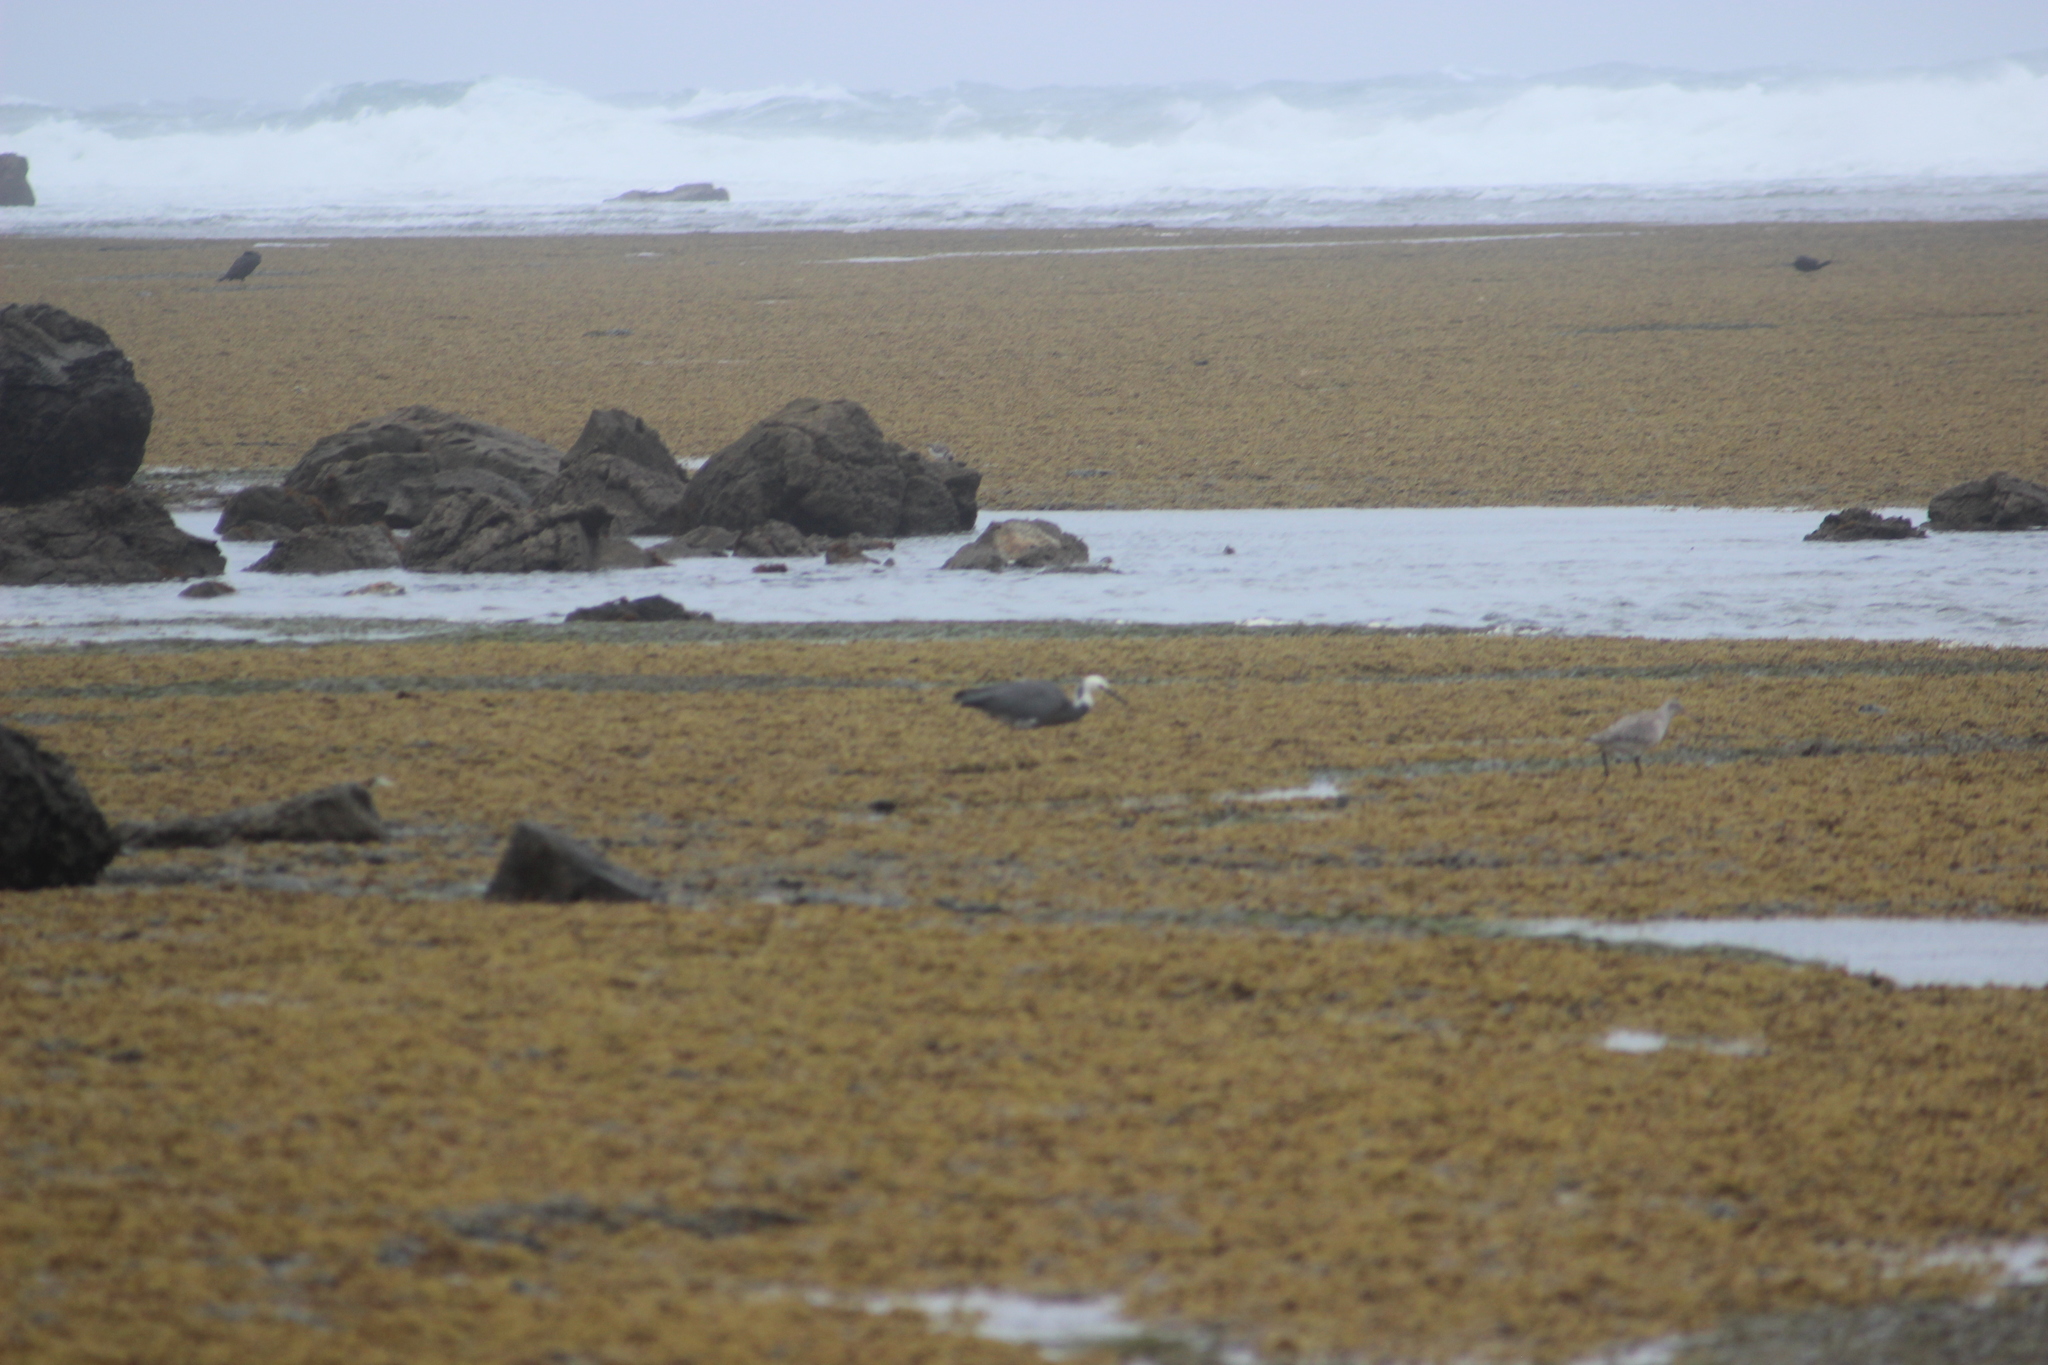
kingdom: Animalia
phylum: Chordata
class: Aves
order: Pelecaniformes
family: Ardeidae
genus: Egretta
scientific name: Egretta novaehollandiae
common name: White-faced heron
